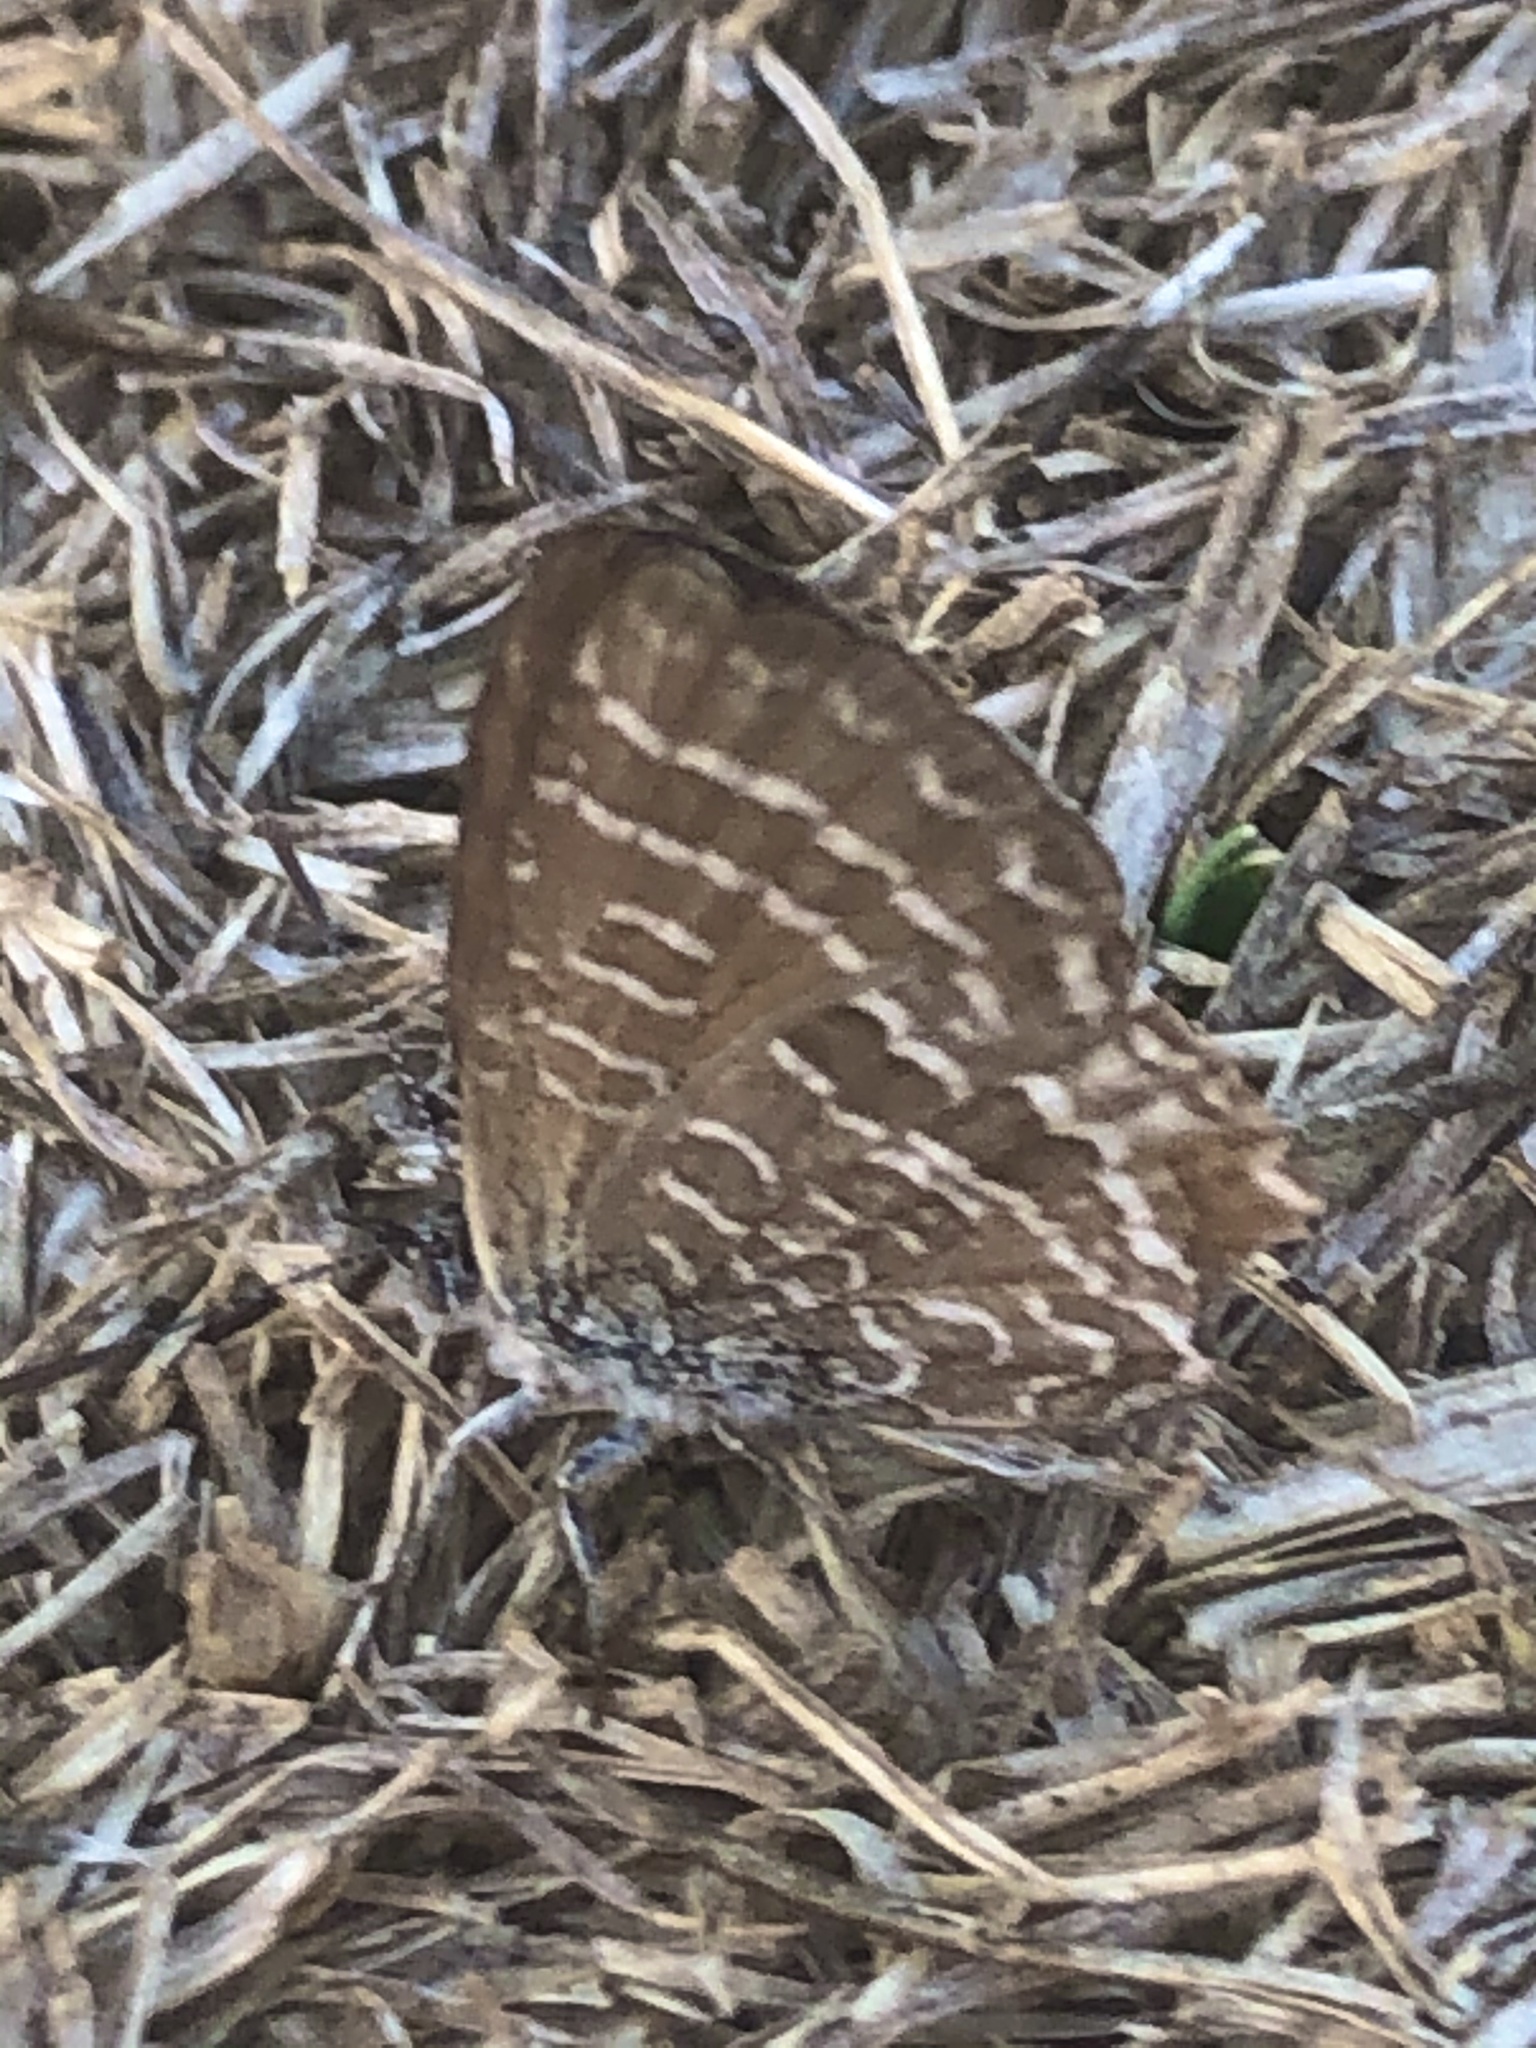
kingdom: Animalia
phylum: Arthropoda
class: Insecta
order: Lepidoptera
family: Lycaenidae
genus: Theclinesthes
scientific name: Theclinesthes onycha
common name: Cycad blue
